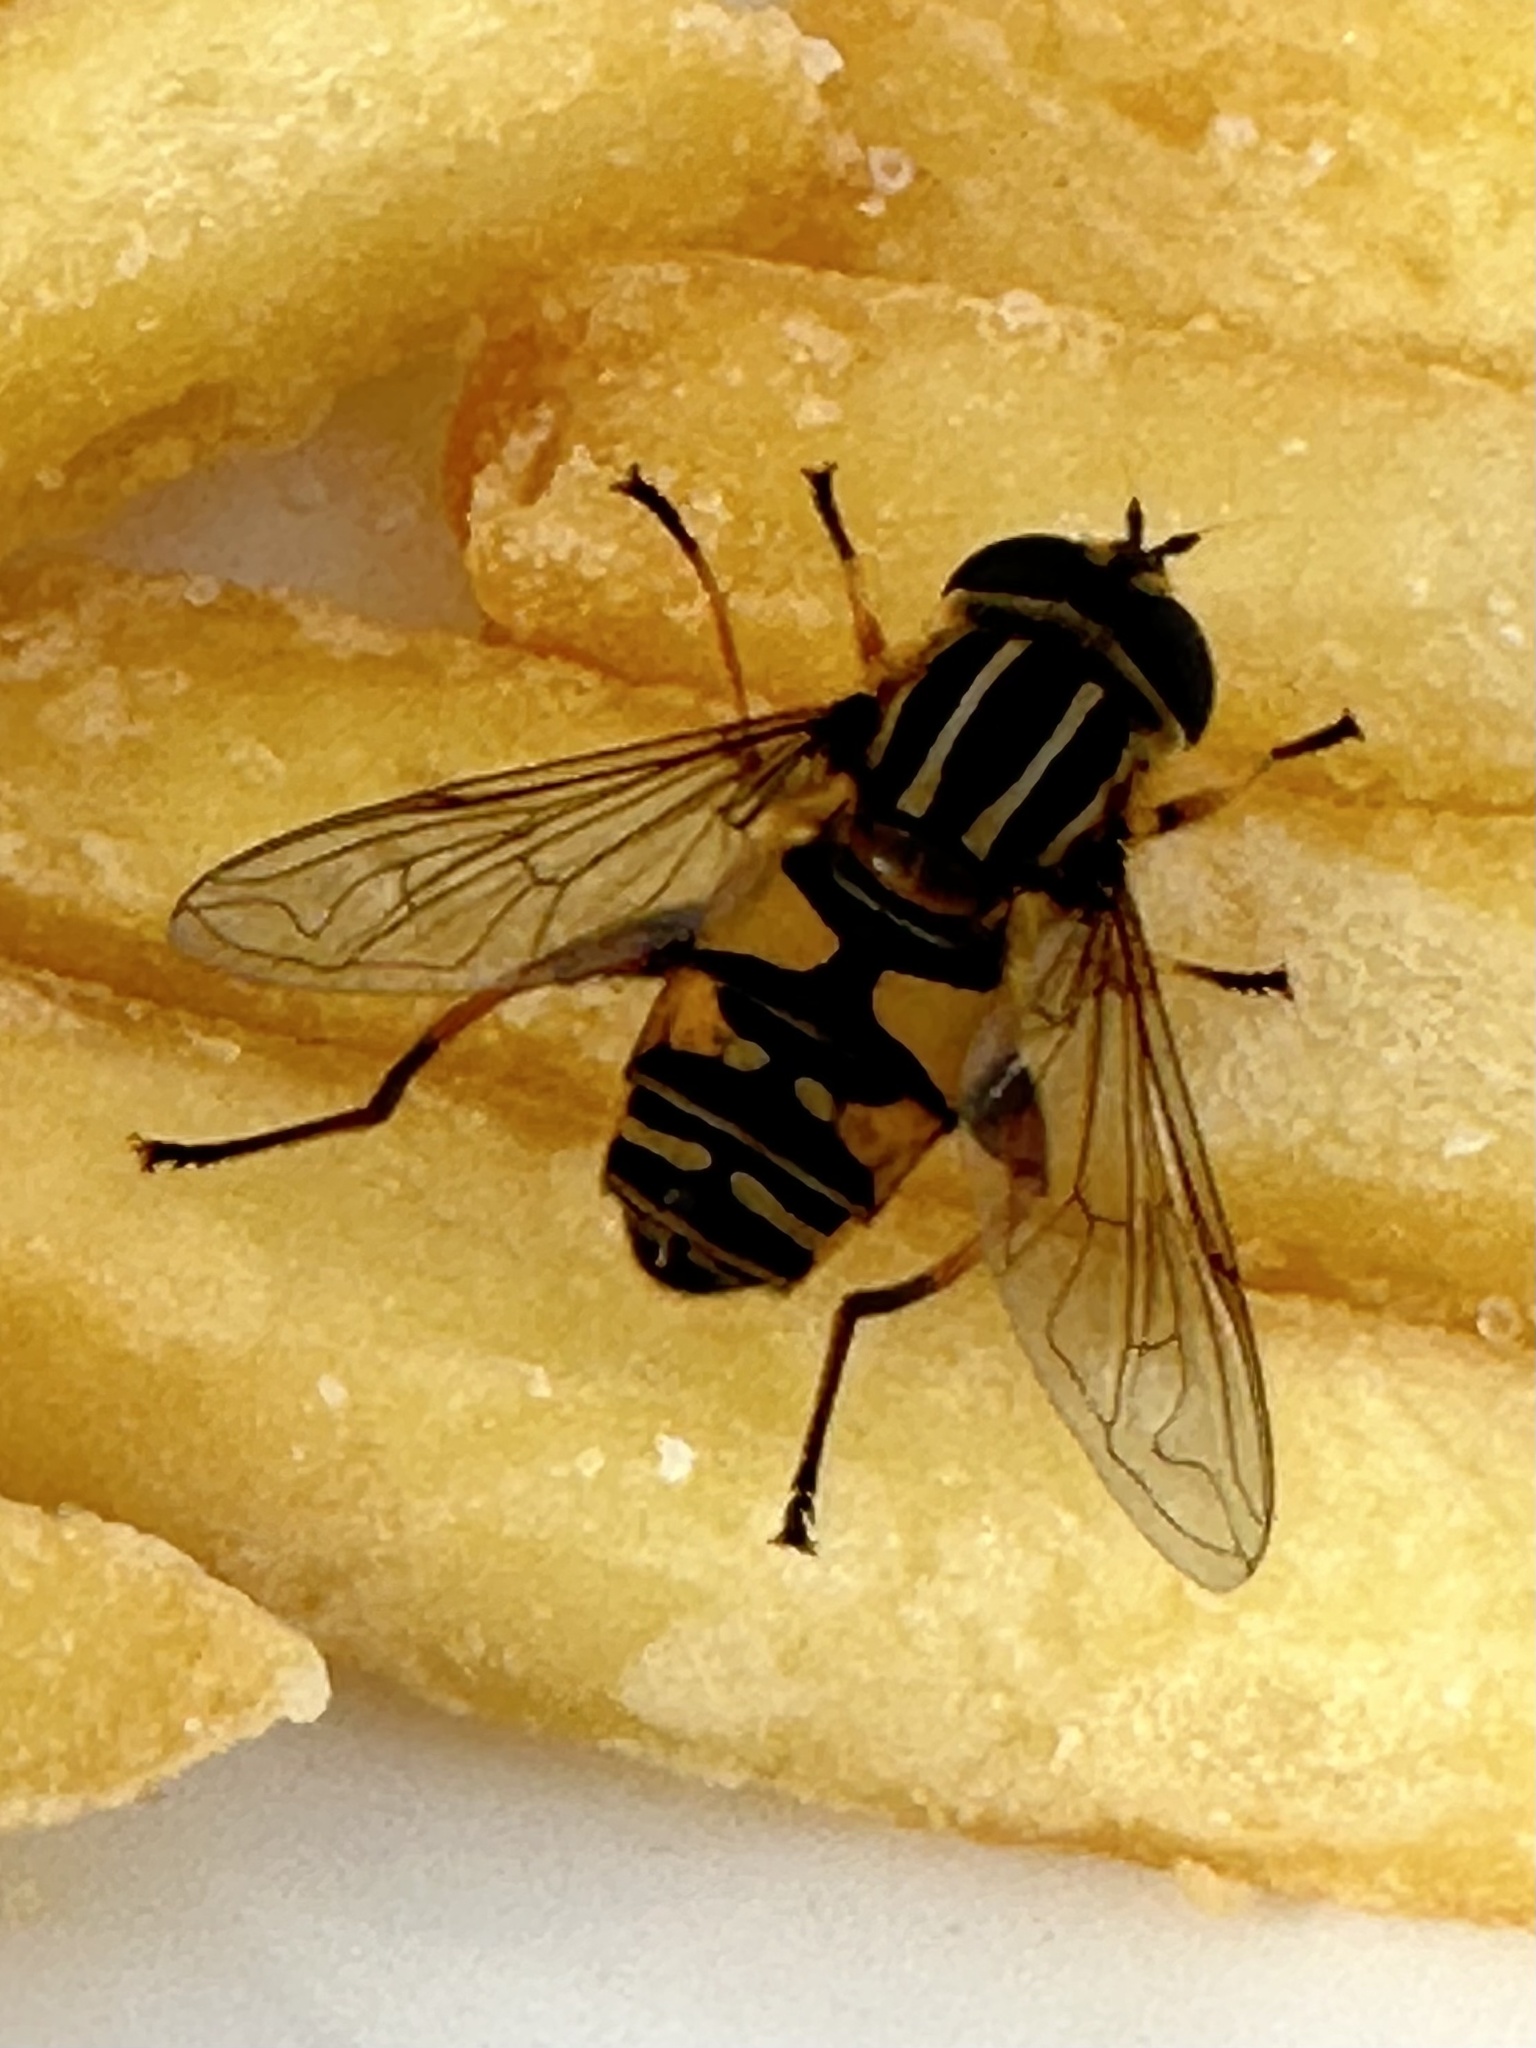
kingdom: Animalia
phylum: Arthropoda
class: Insecta
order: Diptera
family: Syrphidae
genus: Helophilus
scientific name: Helophilus pendulus
